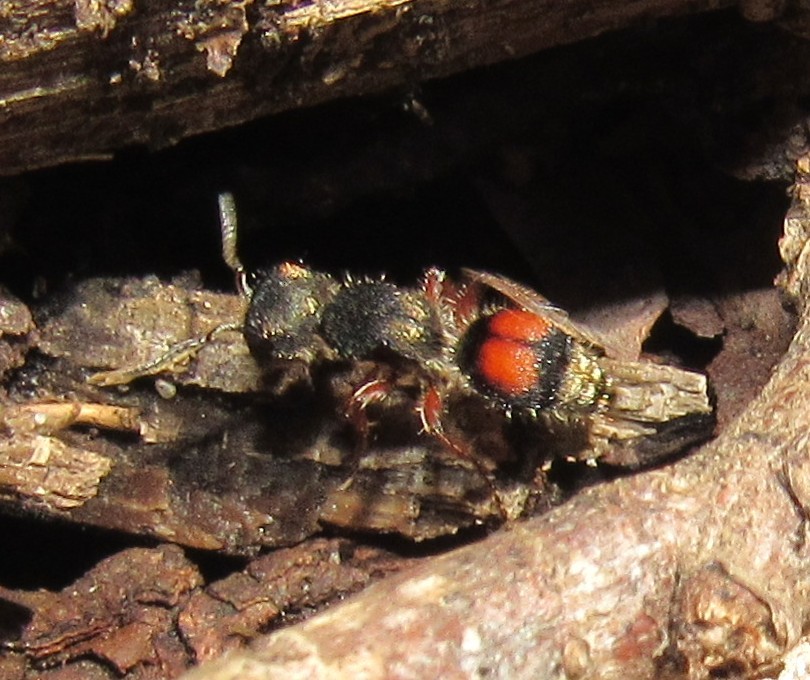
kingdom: Animalia
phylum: Arthropoda
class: Insecta
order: Hymenoptera
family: Mutillidae
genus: Darditilla
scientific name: Darditilla felina
